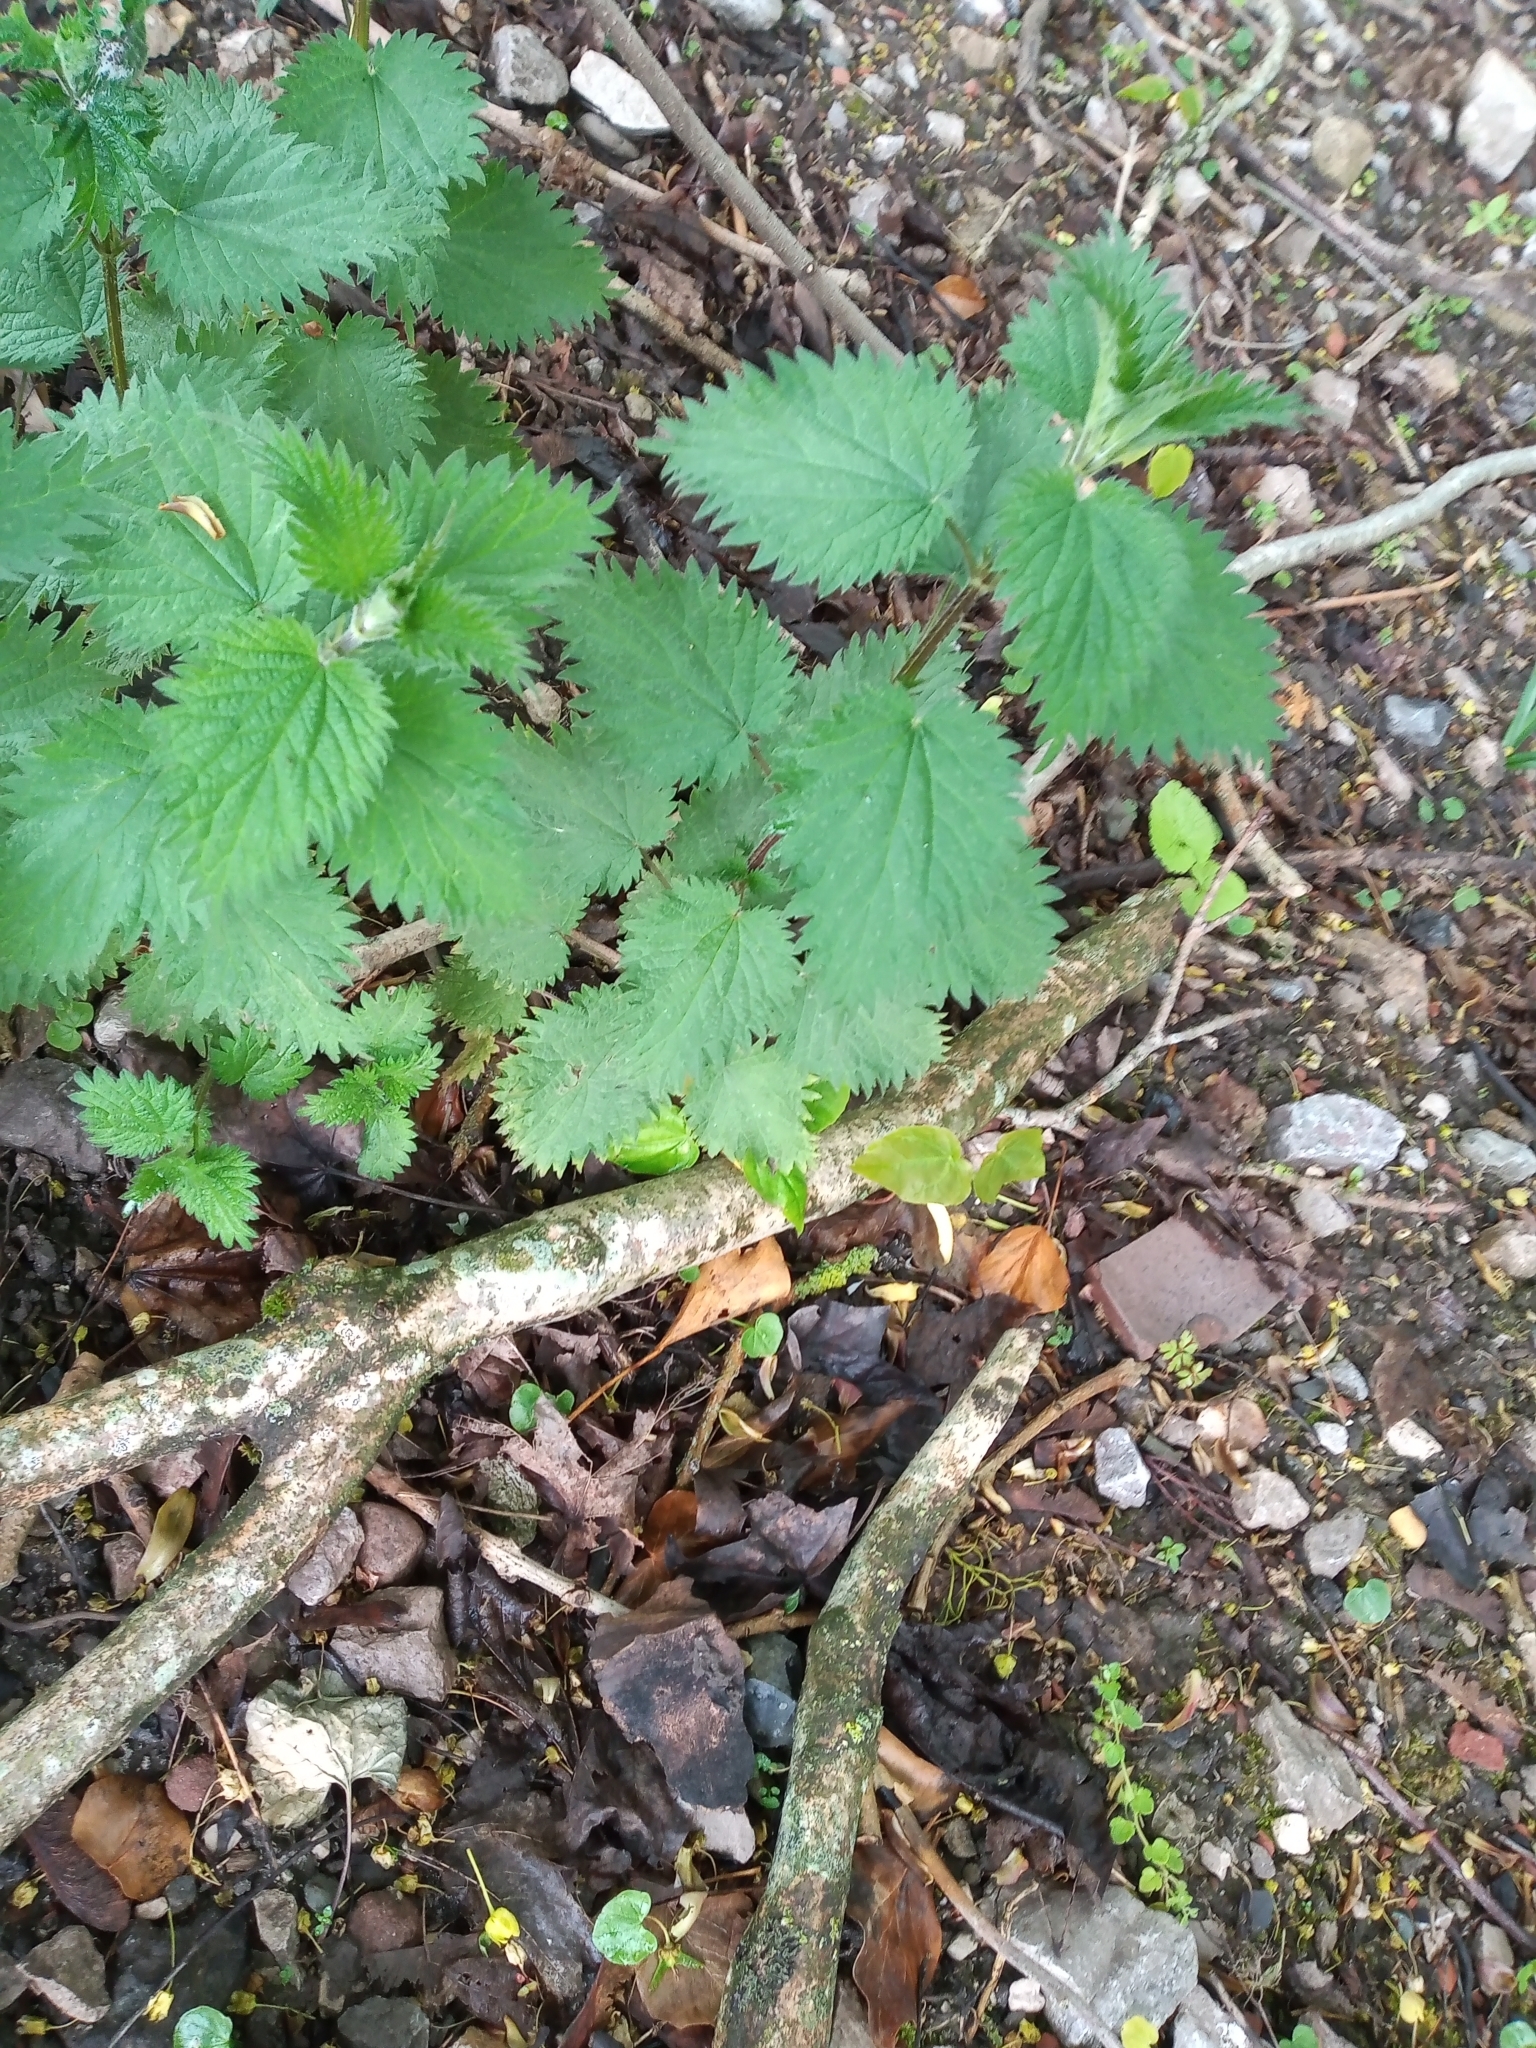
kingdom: Plantae
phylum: Tracheophyta
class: Magnoliopsida
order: Rosales
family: Urticaceae
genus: Urtica
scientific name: Urtica dioica
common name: Common nettle
